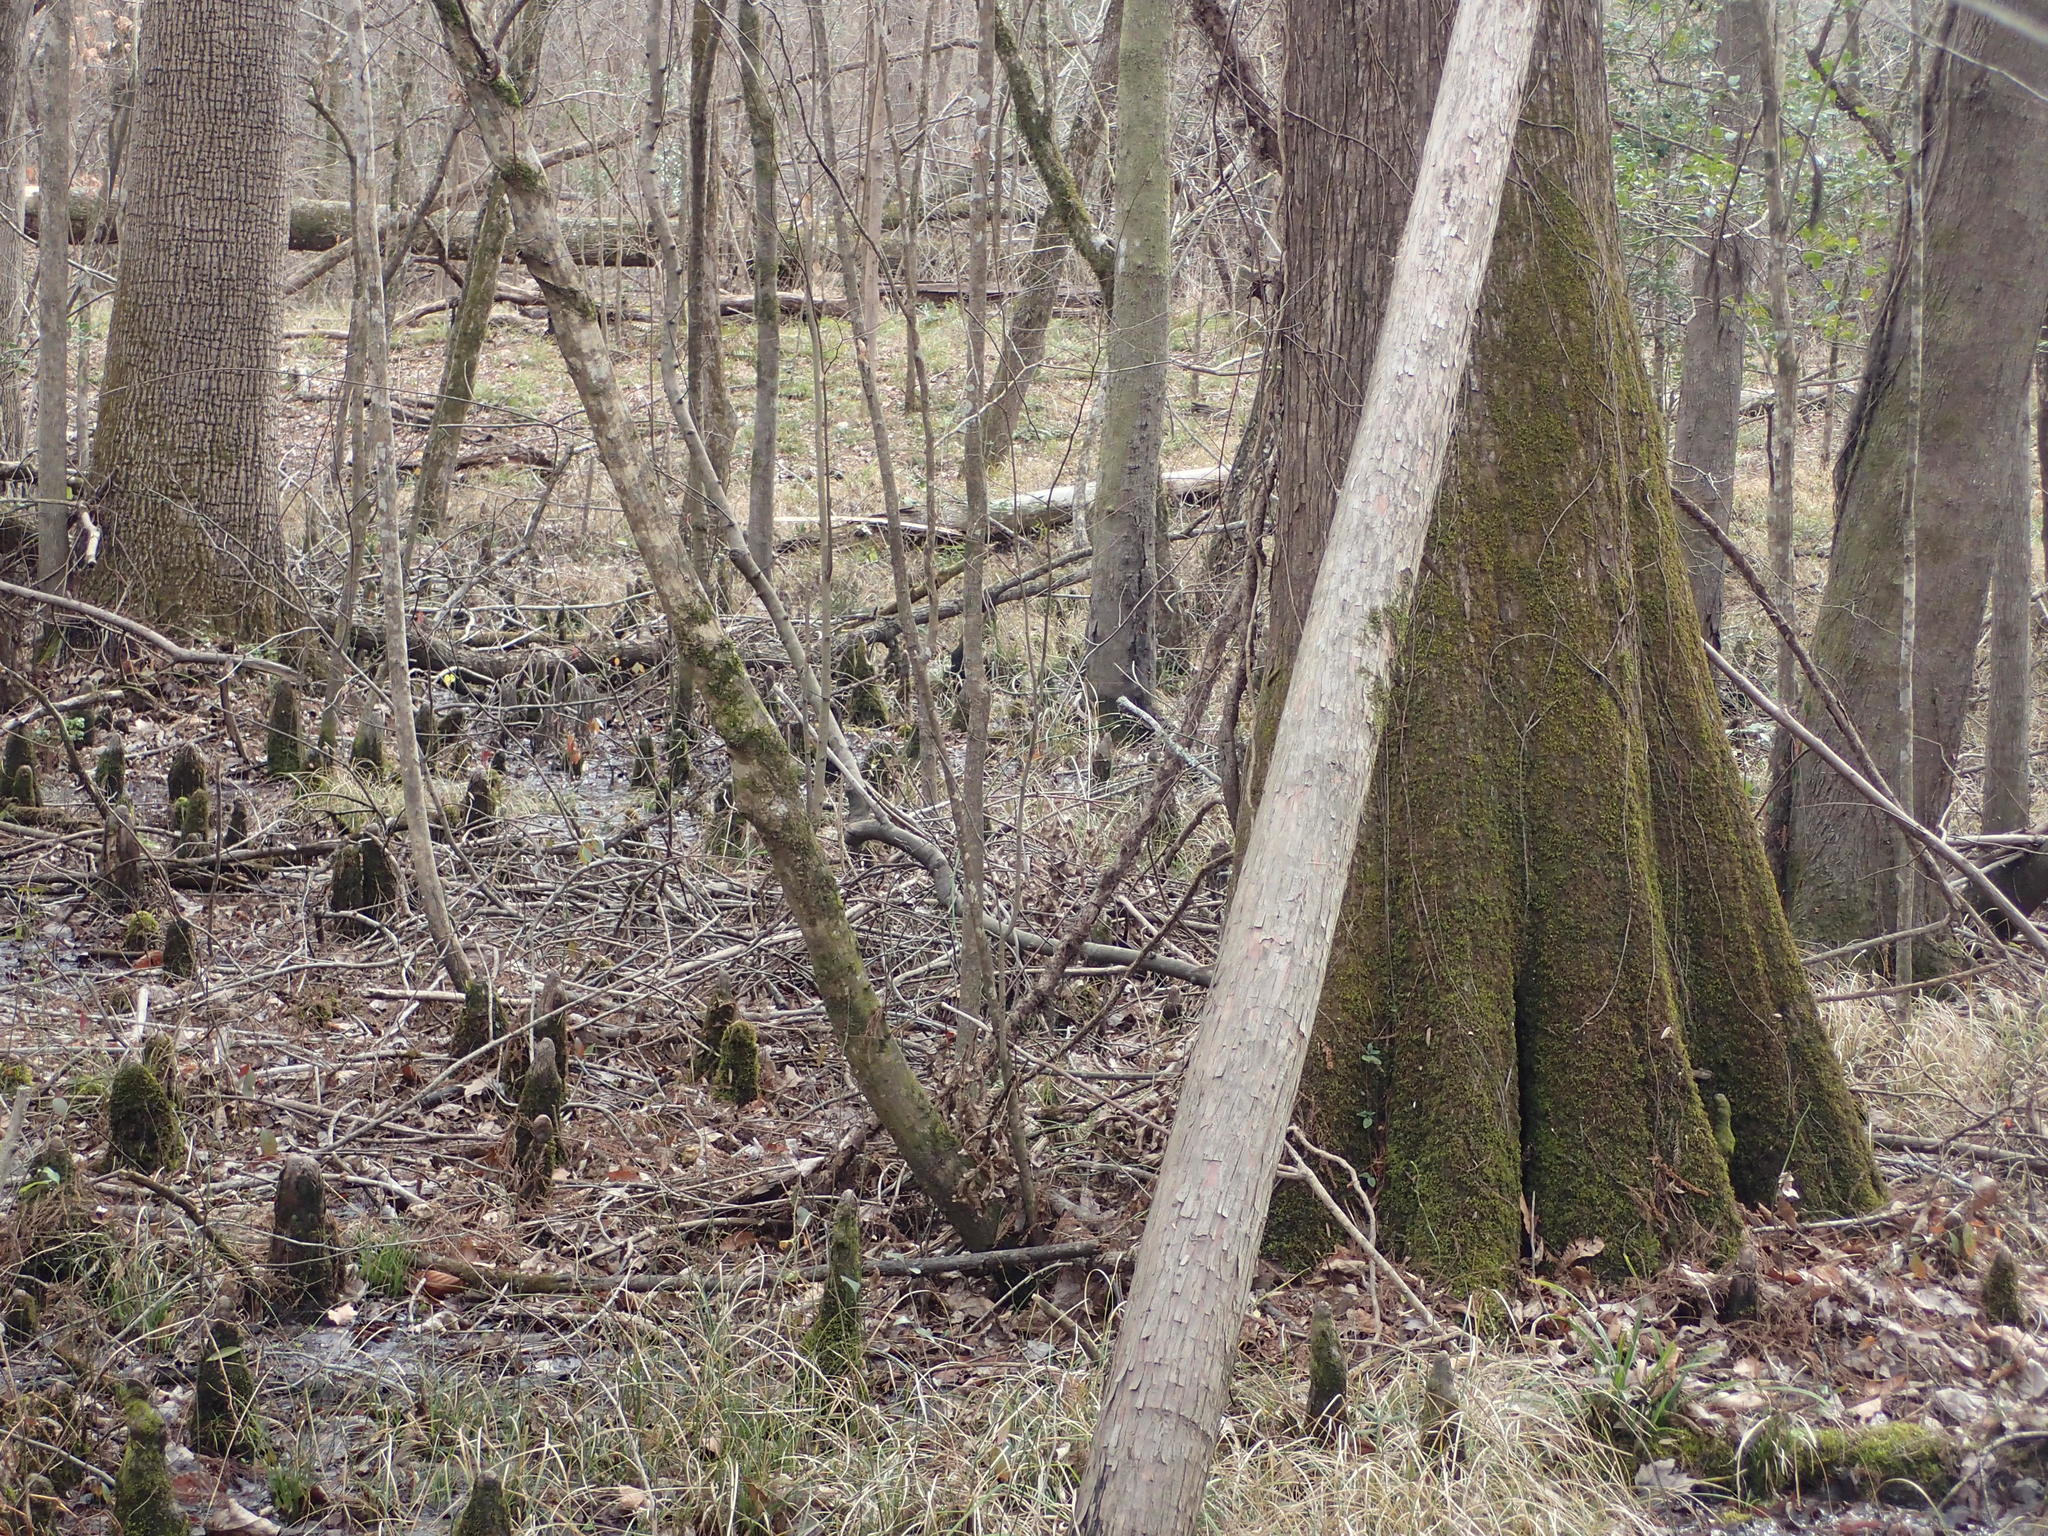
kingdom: Plantae
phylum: Tracheophyta
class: Pinopsida
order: Pinales
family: Cupressaceae
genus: Taxodium
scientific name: Taxodium distichum
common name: Bald cypress
